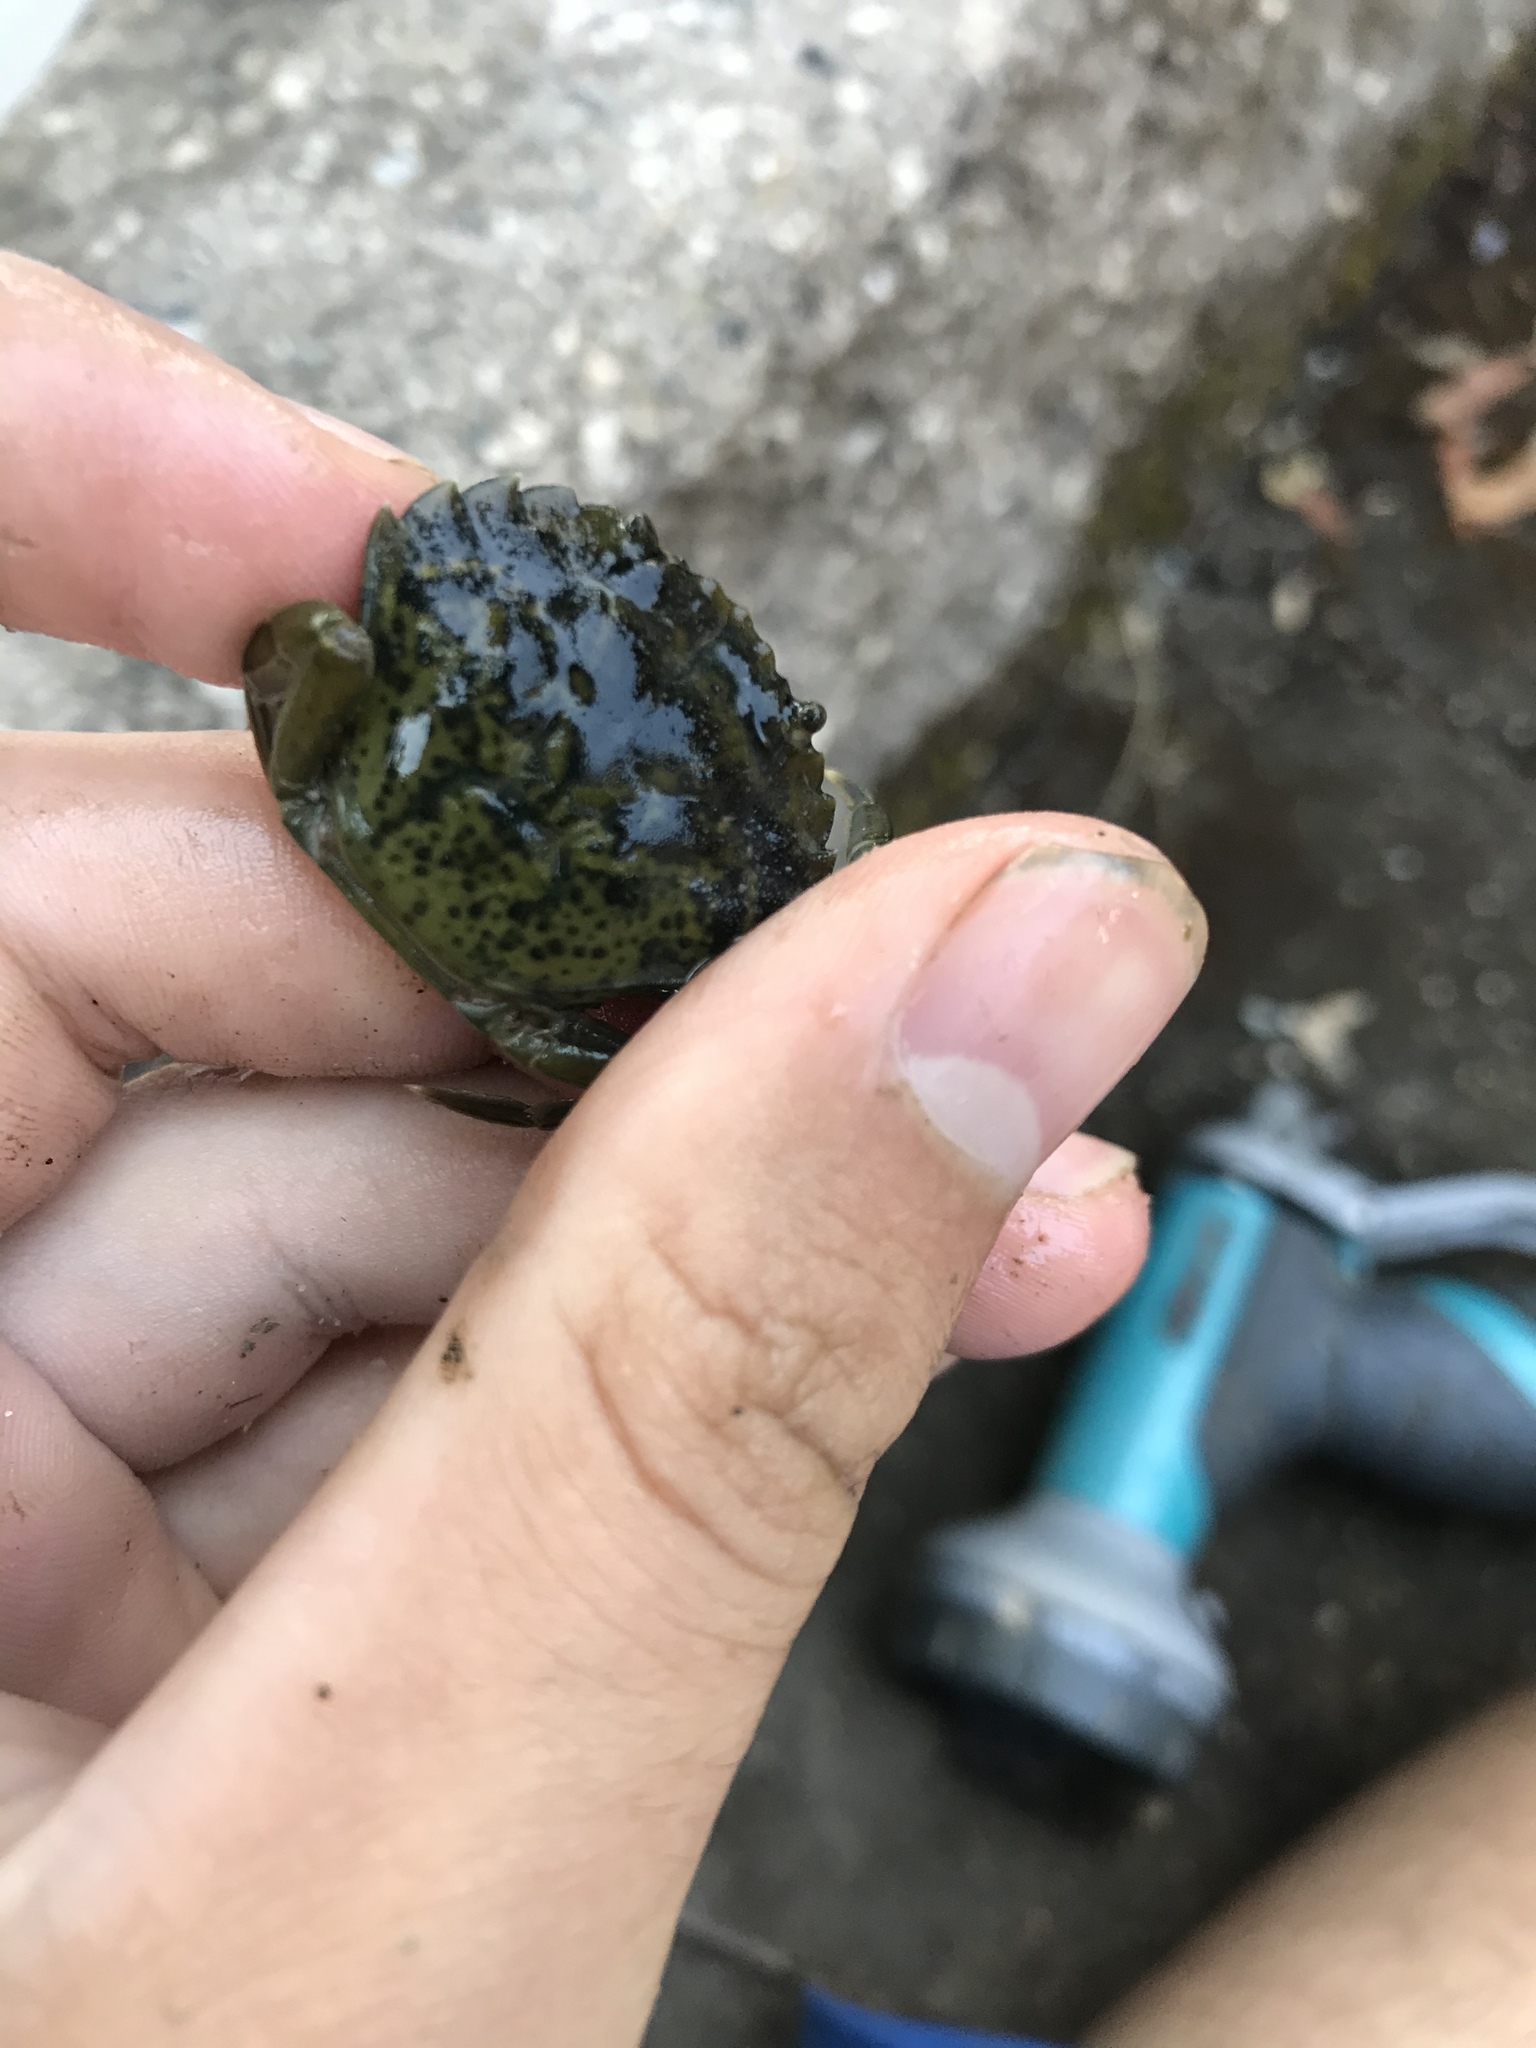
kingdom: Animalia
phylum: Arthropoda
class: Malacostraca
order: Decapoda
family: Carcinidae
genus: Carcinus
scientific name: Carcinus maenas
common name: European green crab
